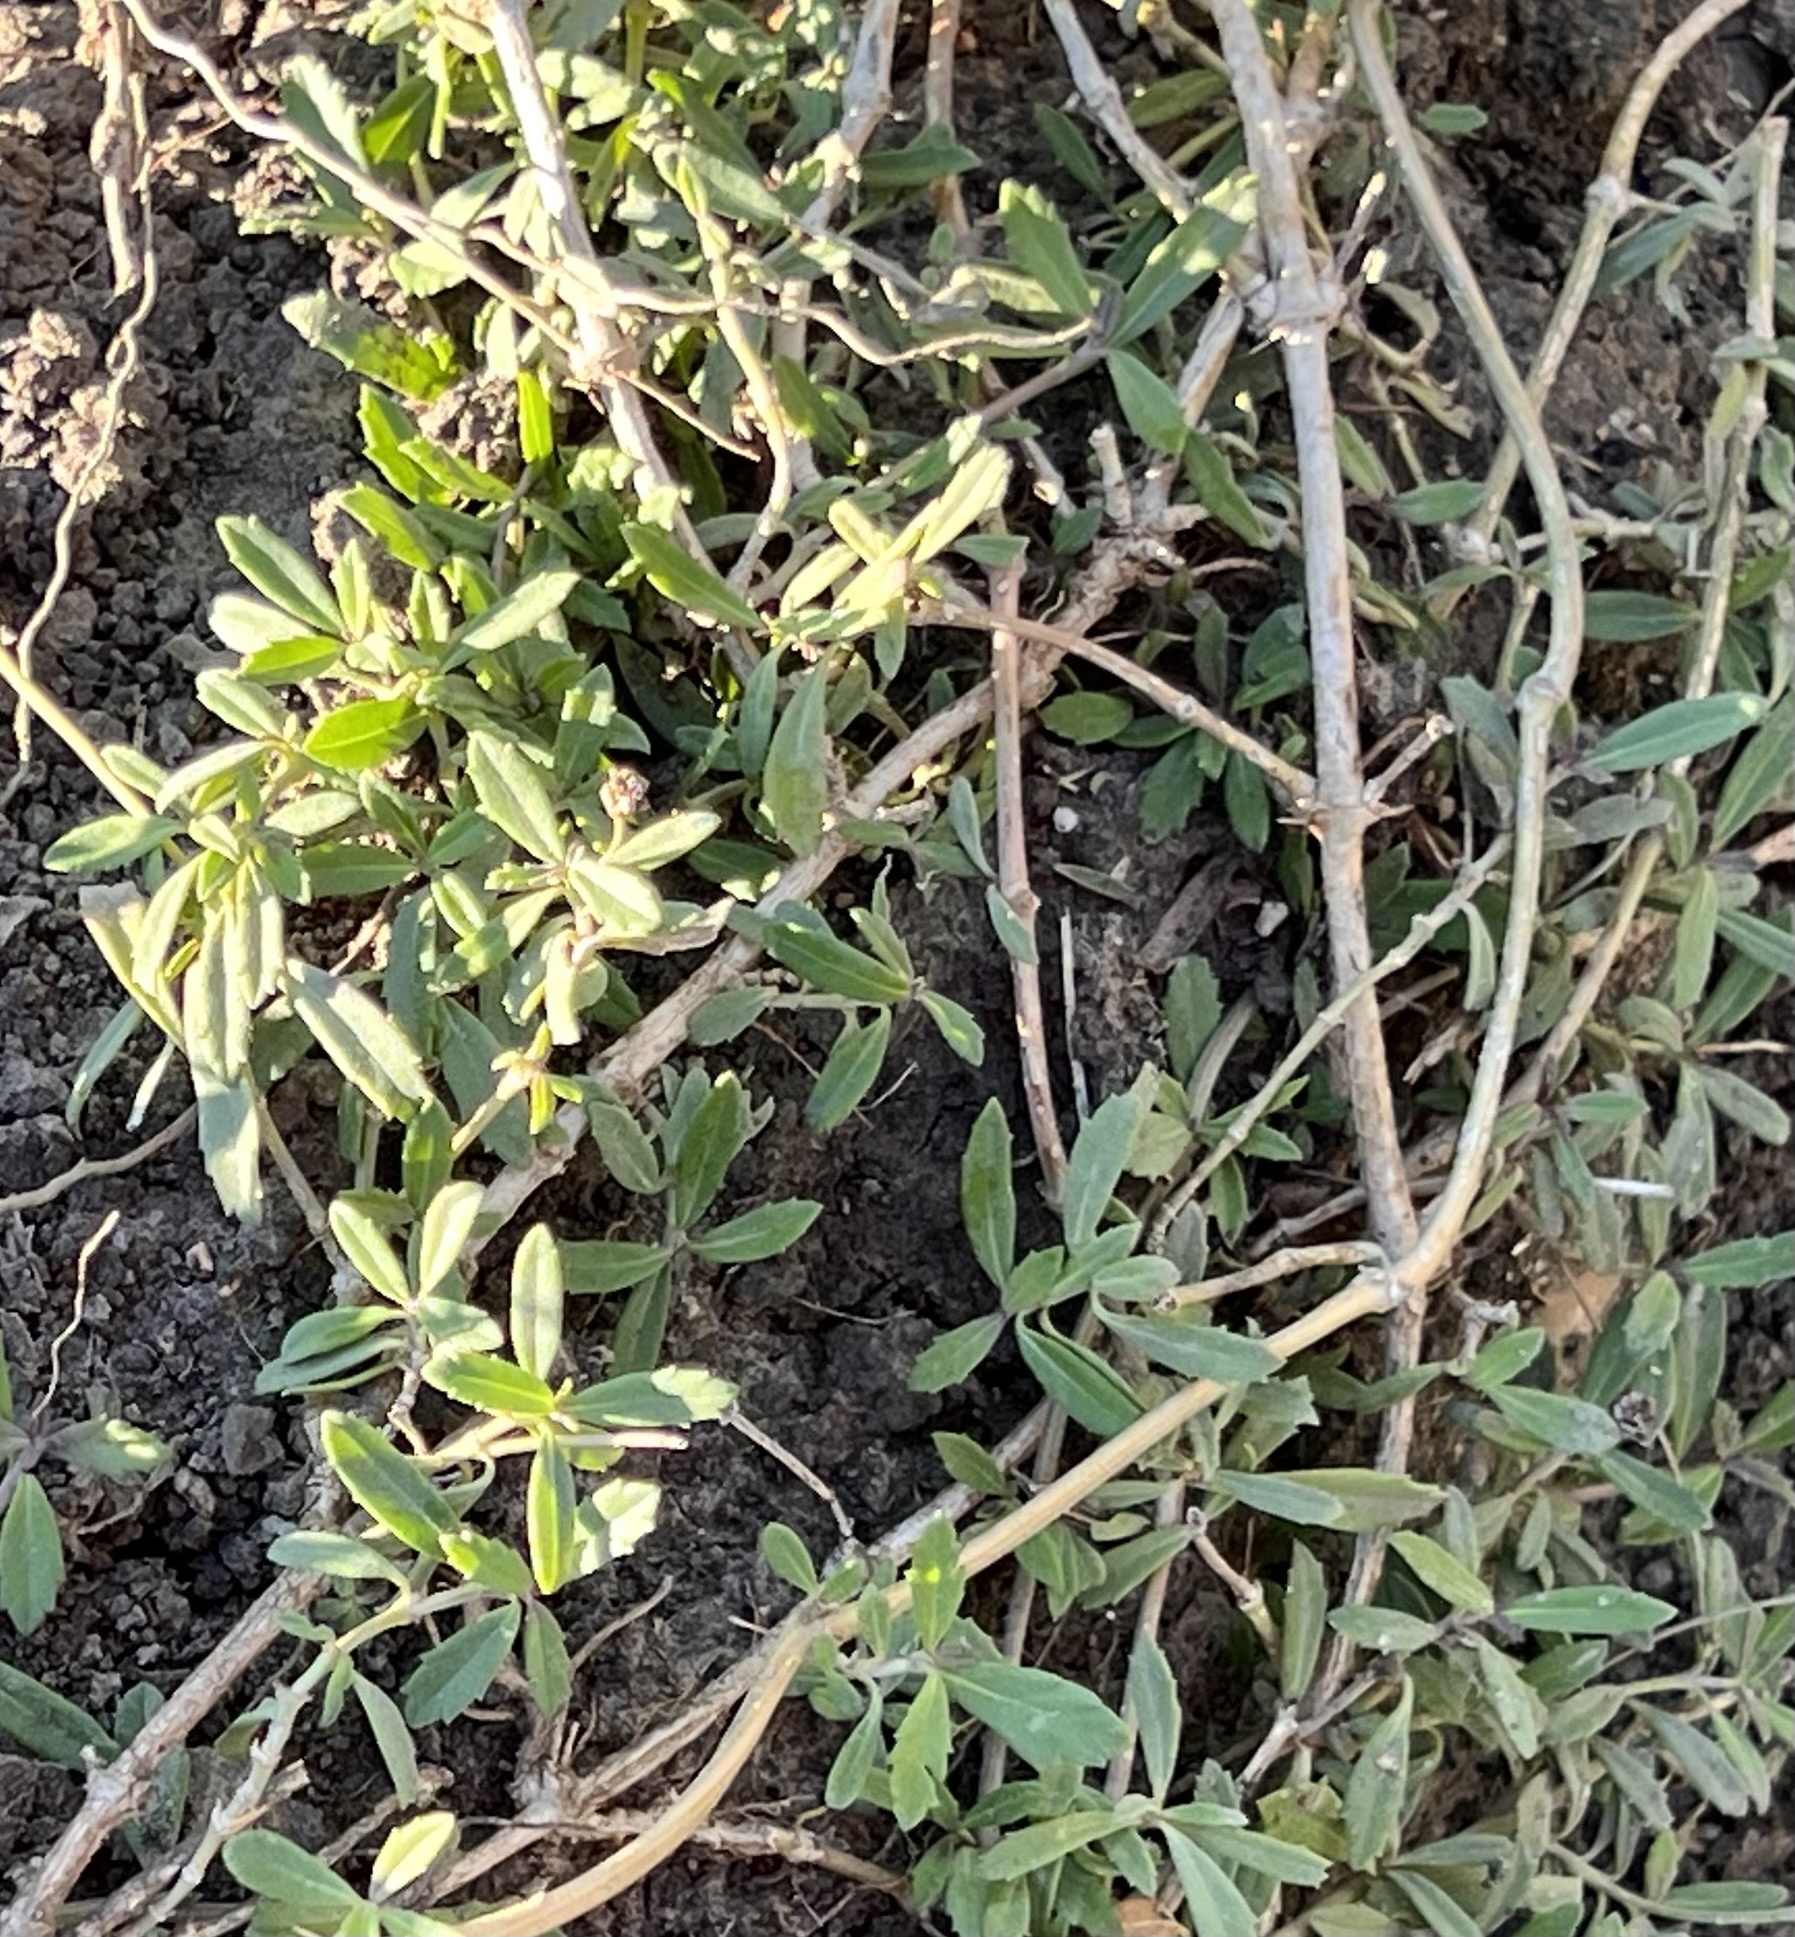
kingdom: Plantae
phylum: Tracheophyta
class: Magnoliopsida
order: Lamiales
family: Verbenaceae
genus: Phyla
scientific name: Phyla nodiflora
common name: Frogfruit
